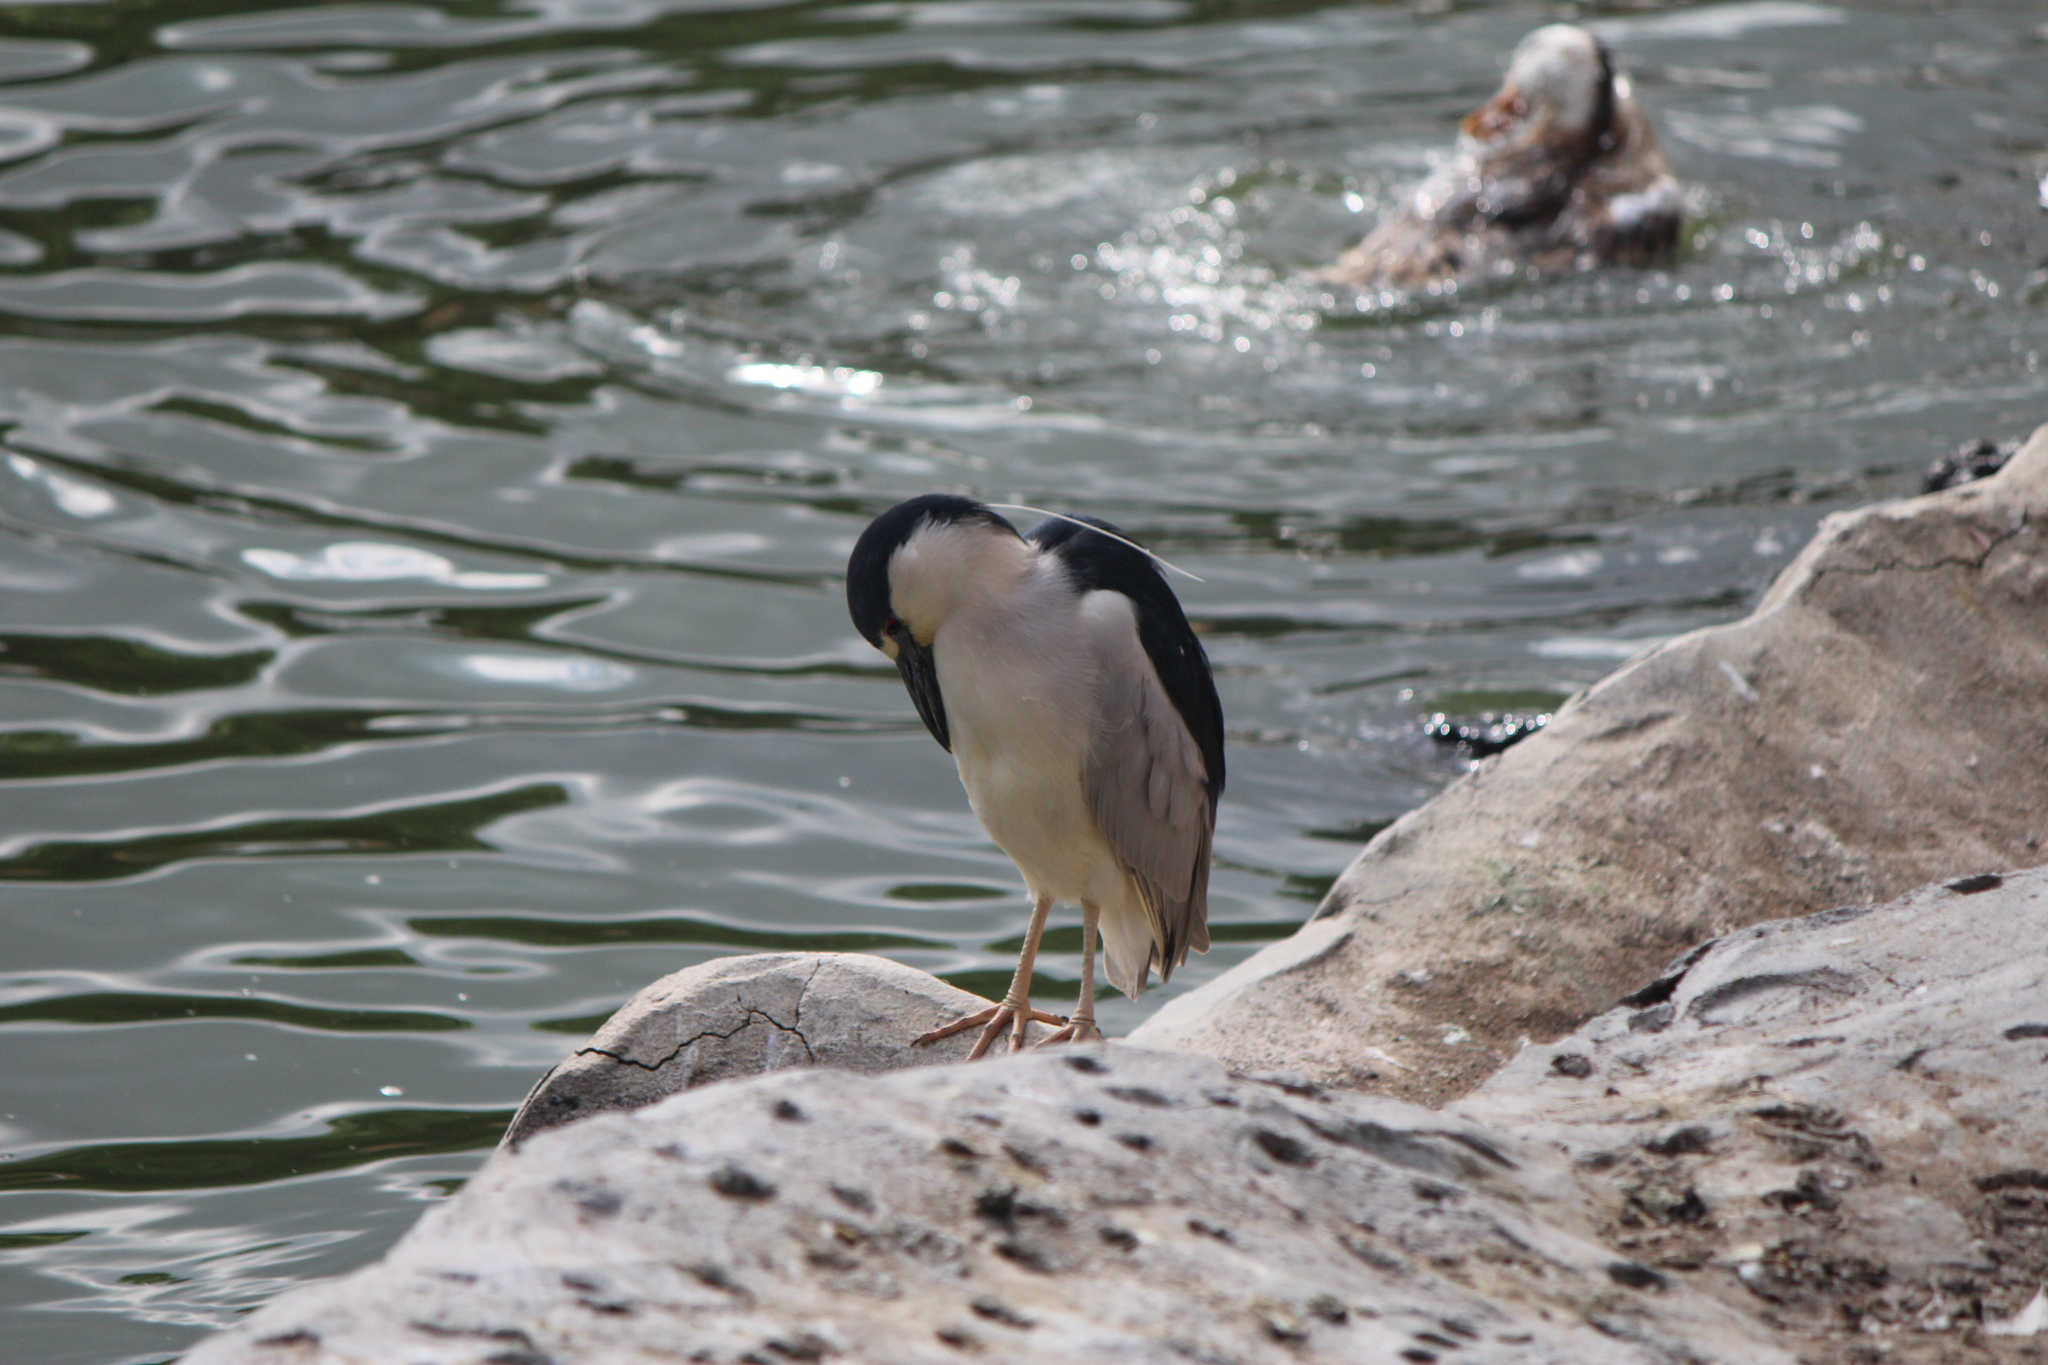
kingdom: Animalia
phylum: Chordata
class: Aves
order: Pelecaniformes
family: Ardeidae
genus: Nycticorax
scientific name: Nycticorax nycticorax
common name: Black-crowned night heron
